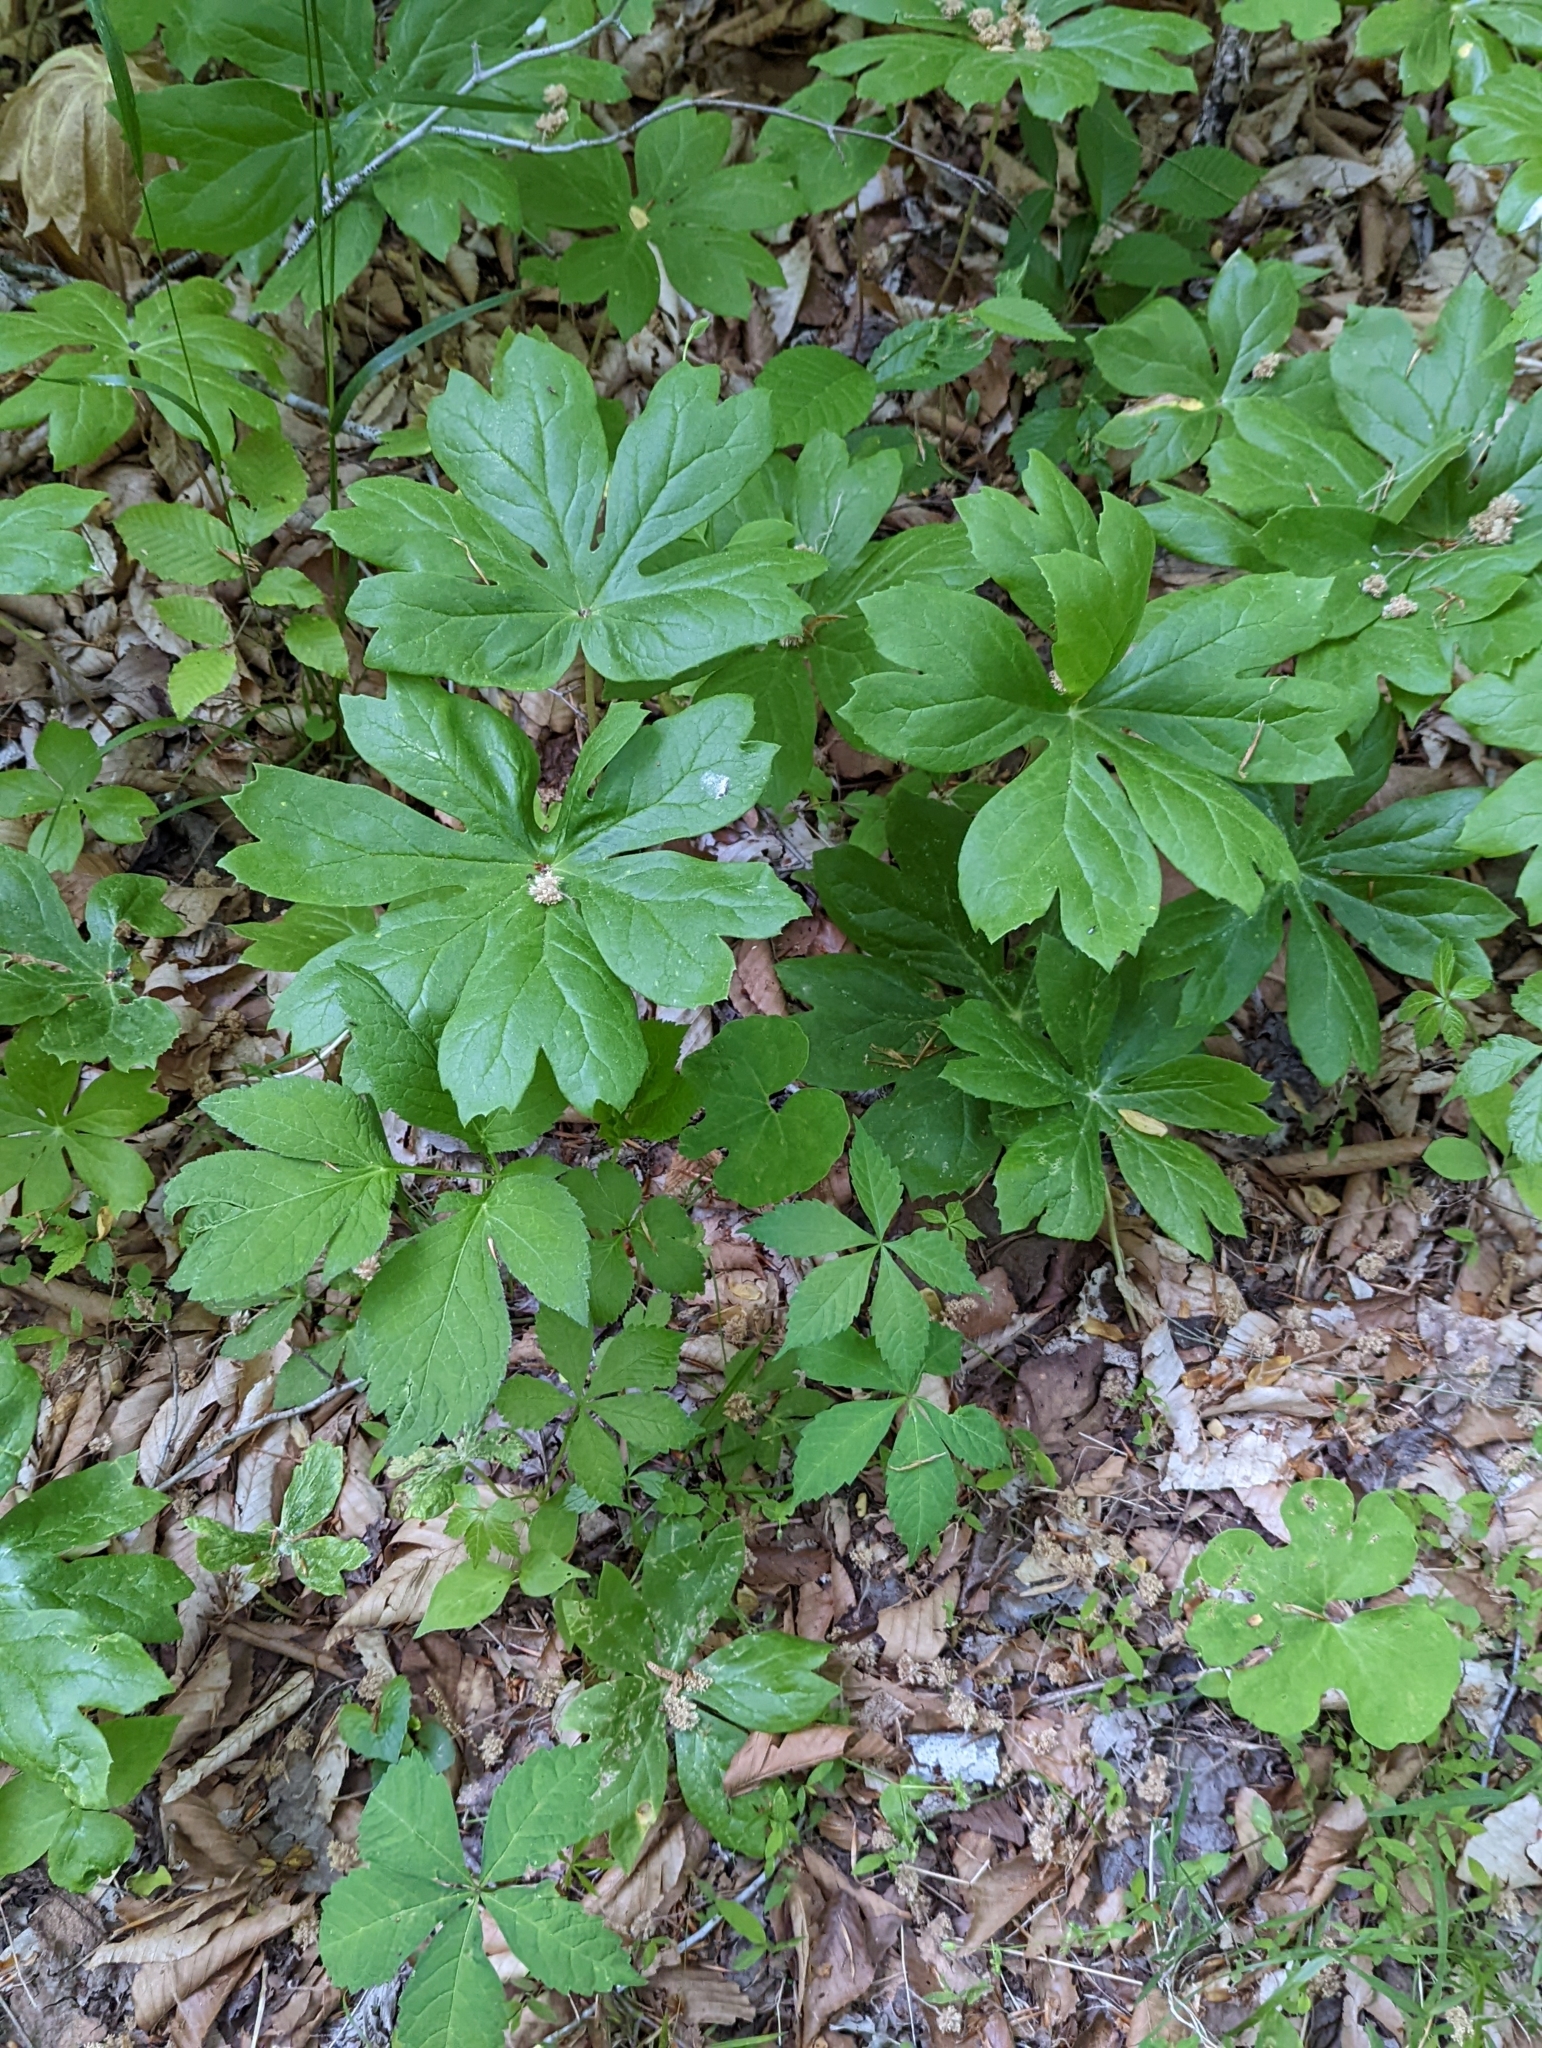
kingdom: Plantae
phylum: Tracheophyta
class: Magnoliopsida
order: Ranunculales
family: Berberidaceae
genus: Podophyllum
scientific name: Podophyllum peltatum
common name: Wild mandrake
